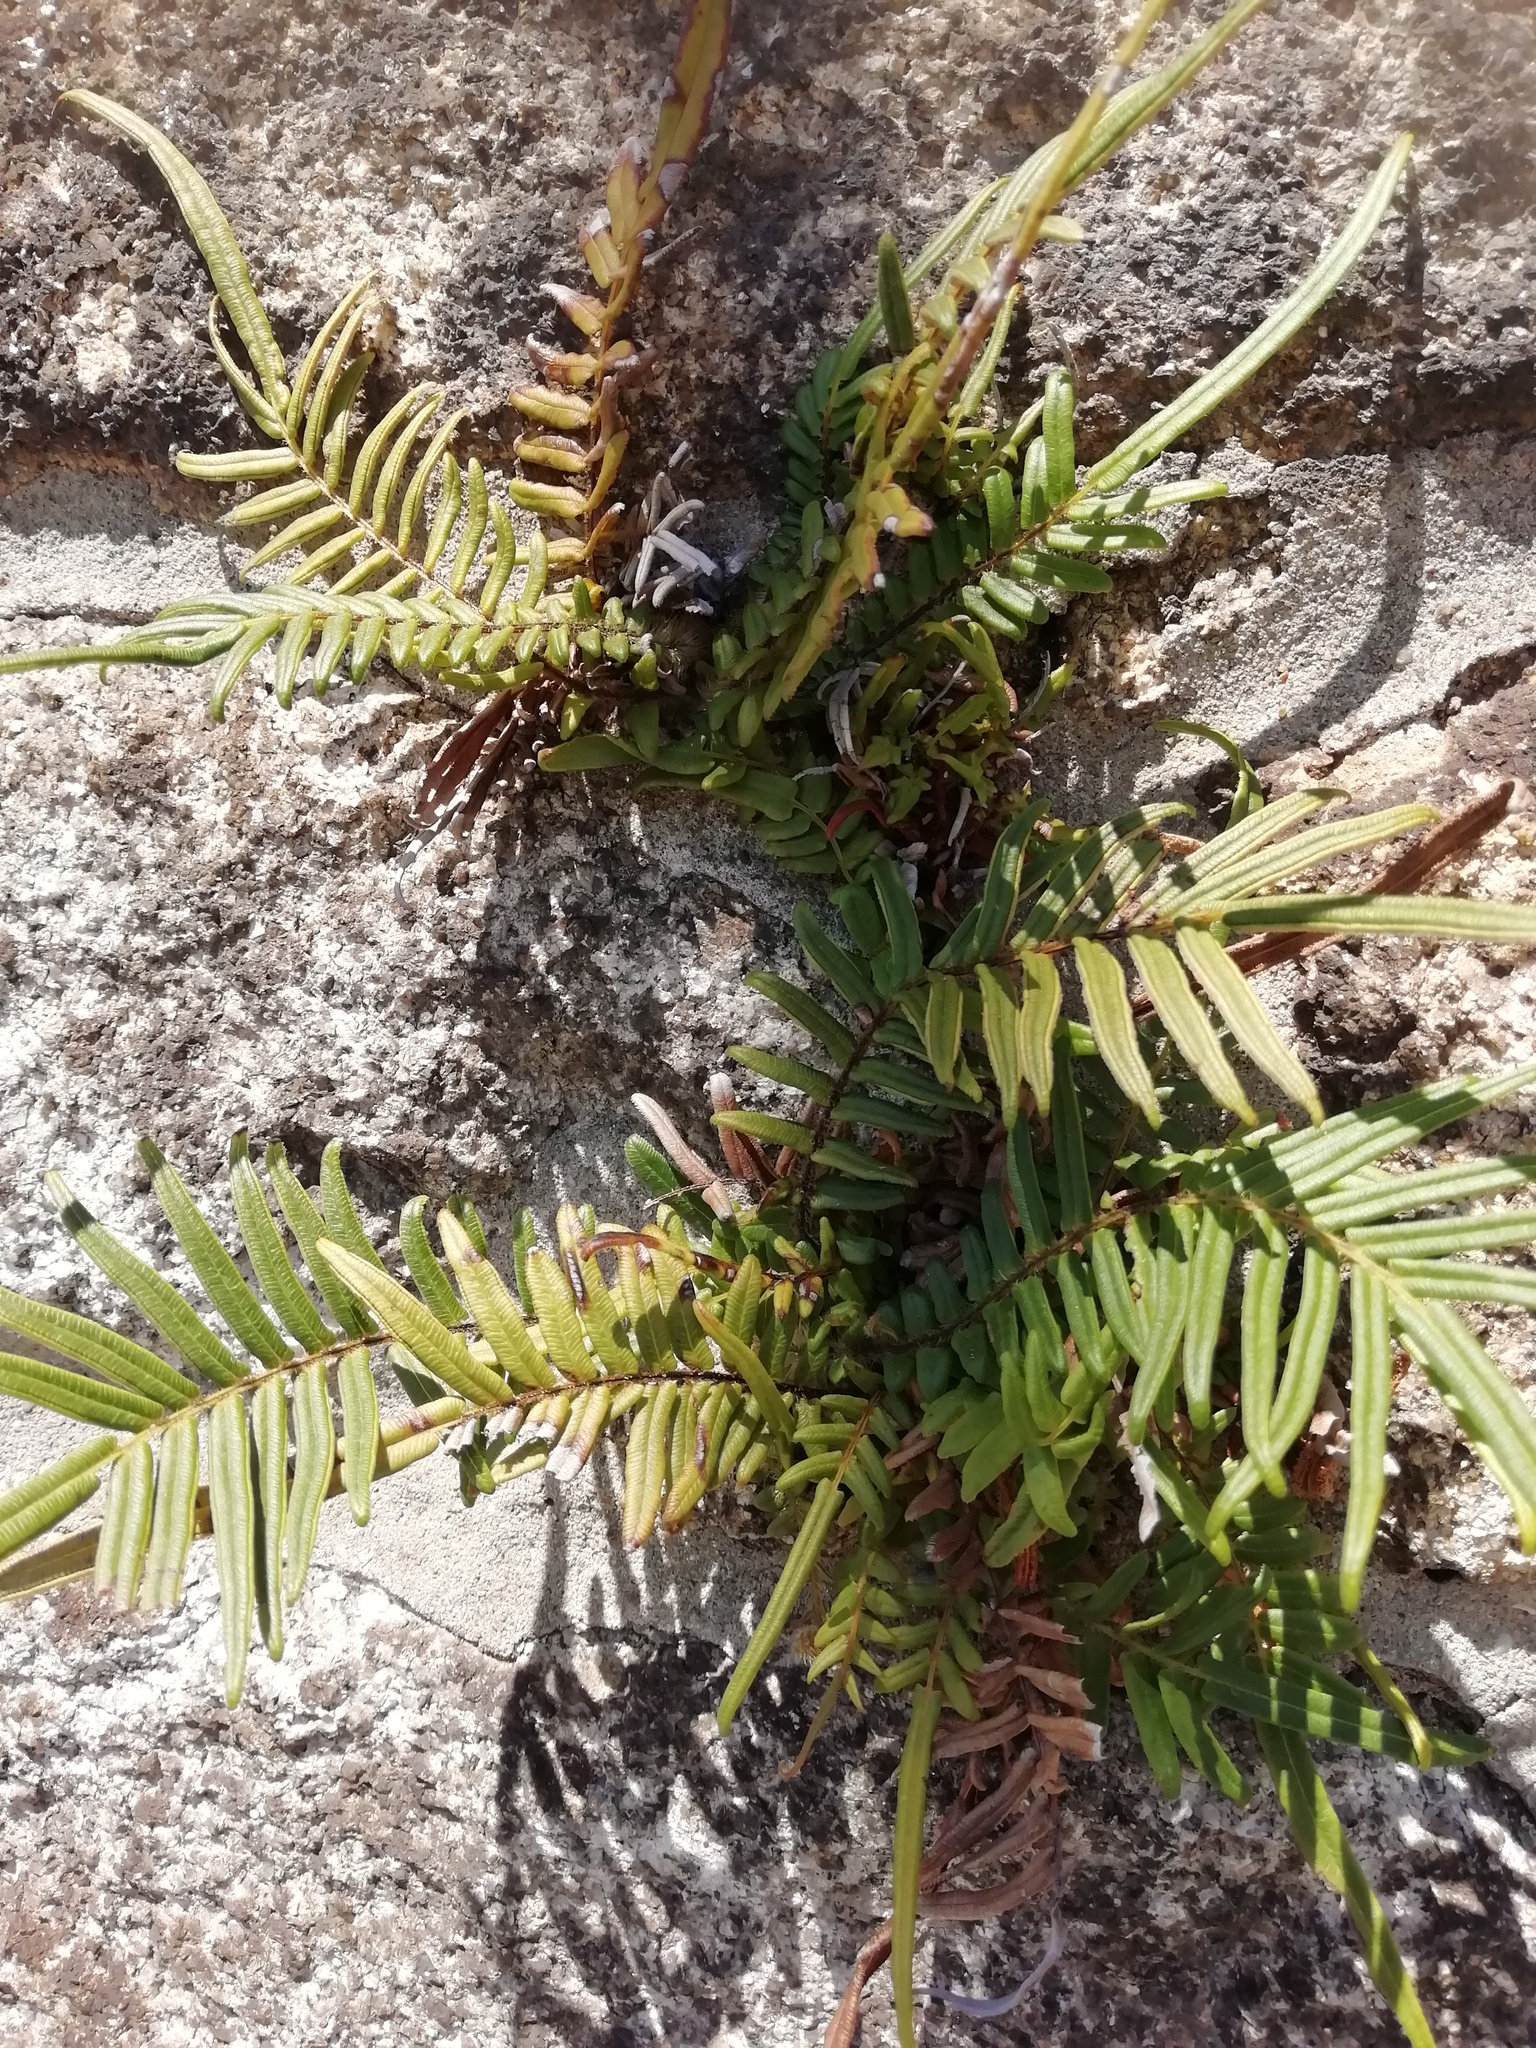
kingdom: Plantae
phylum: Tracheophyta
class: Polypodiopsida
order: Polypodiales
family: Pteridaceae
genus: Pteris
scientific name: Pteris vittata
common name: Ladder brake
